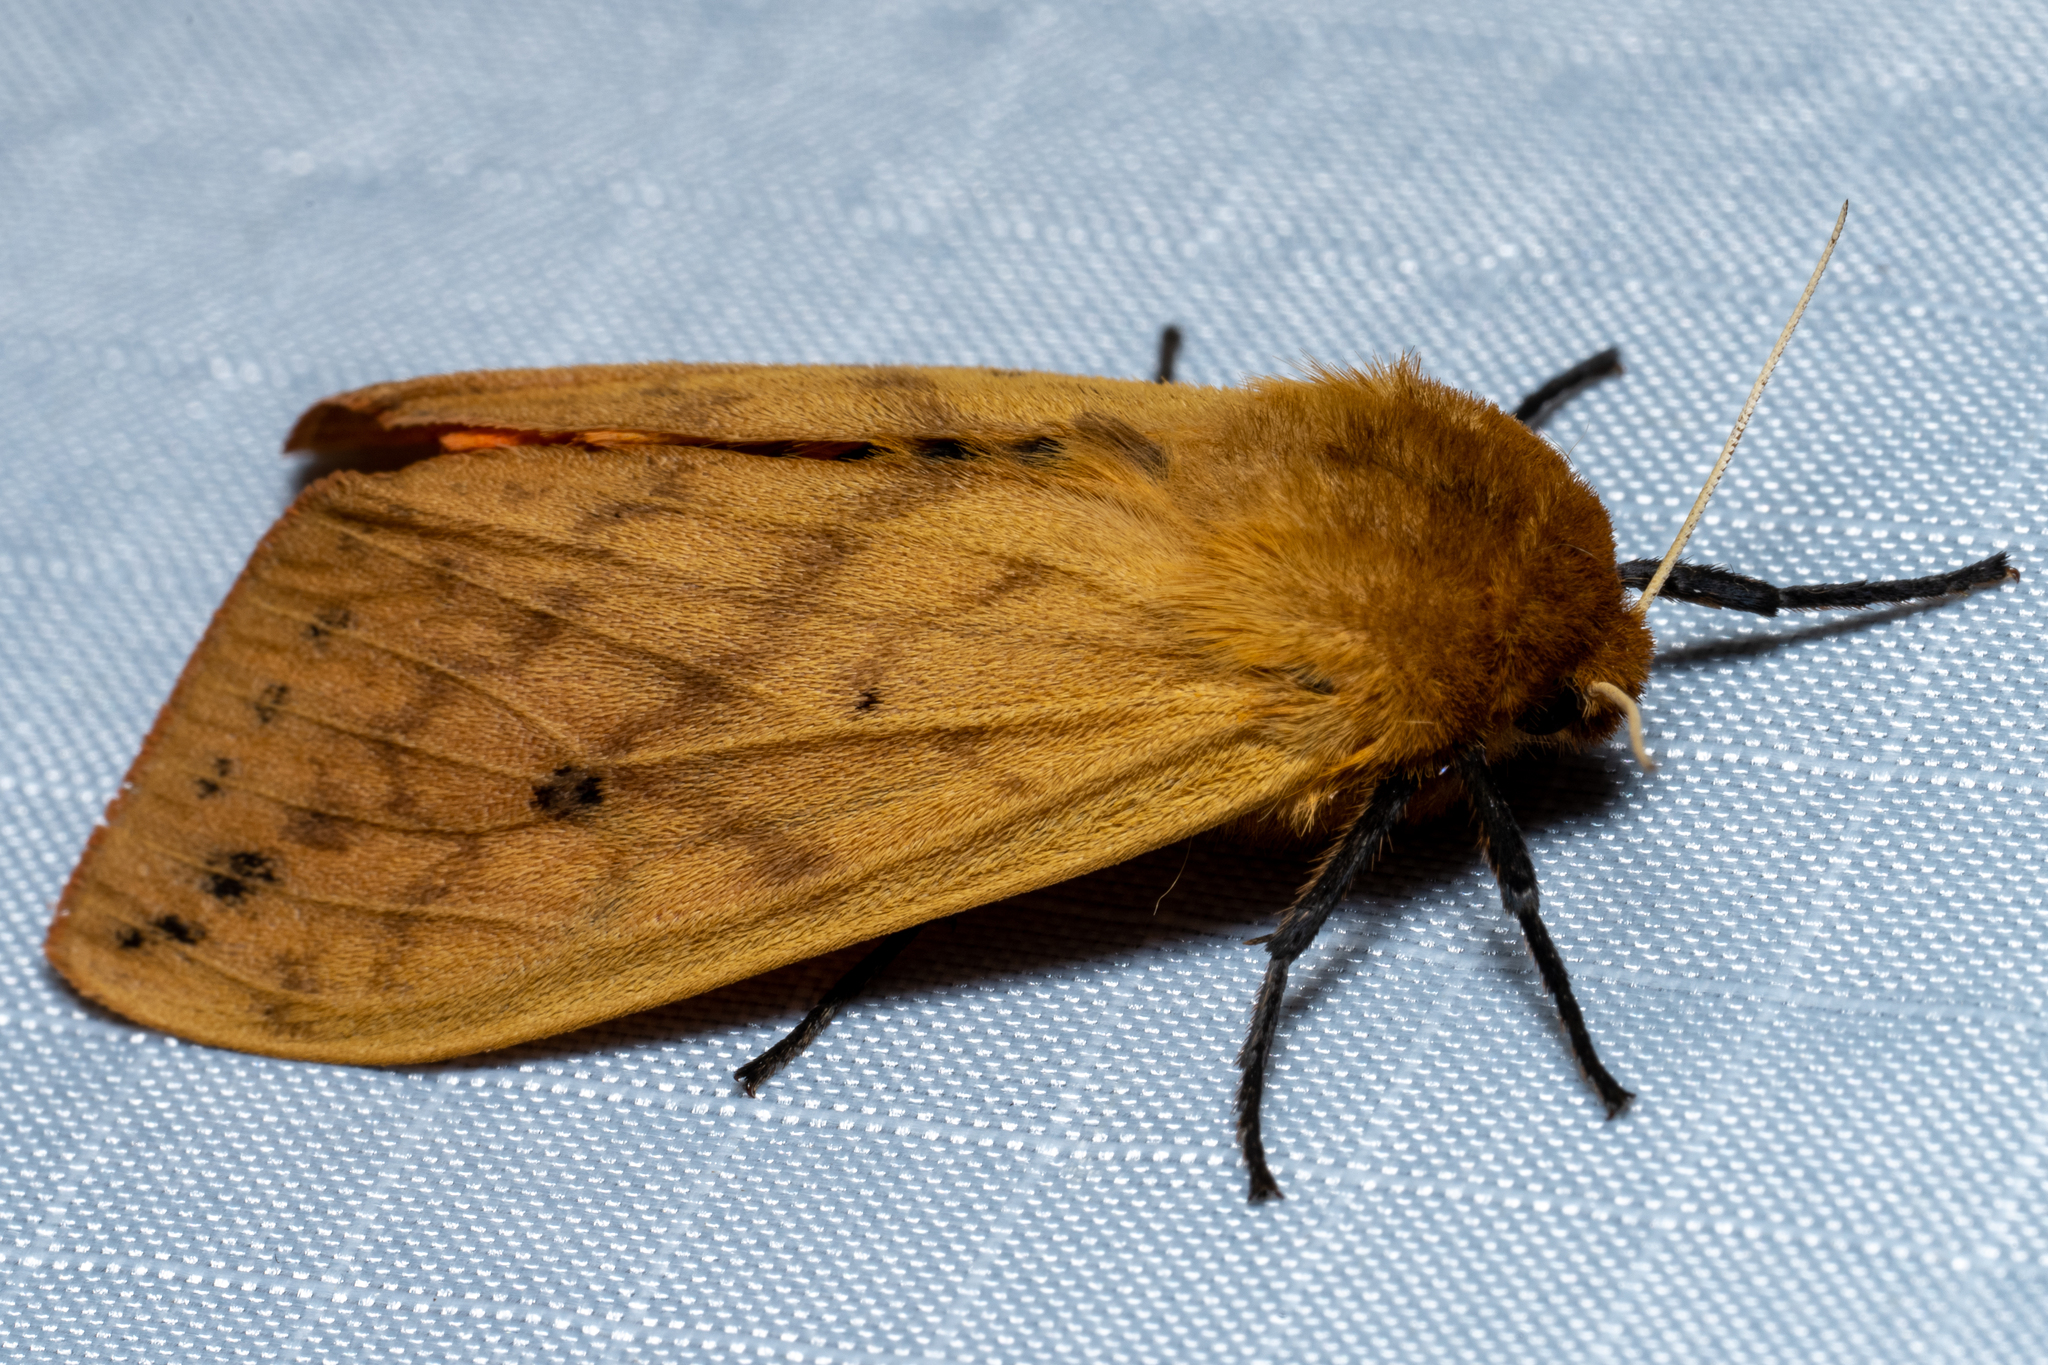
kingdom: Animalia
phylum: Arthropoda
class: Insecta
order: Lepidoptera
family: Erebidae
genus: Pyrrharctia
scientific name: Pyrrharctia isabella
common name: Isabella tiger moth
